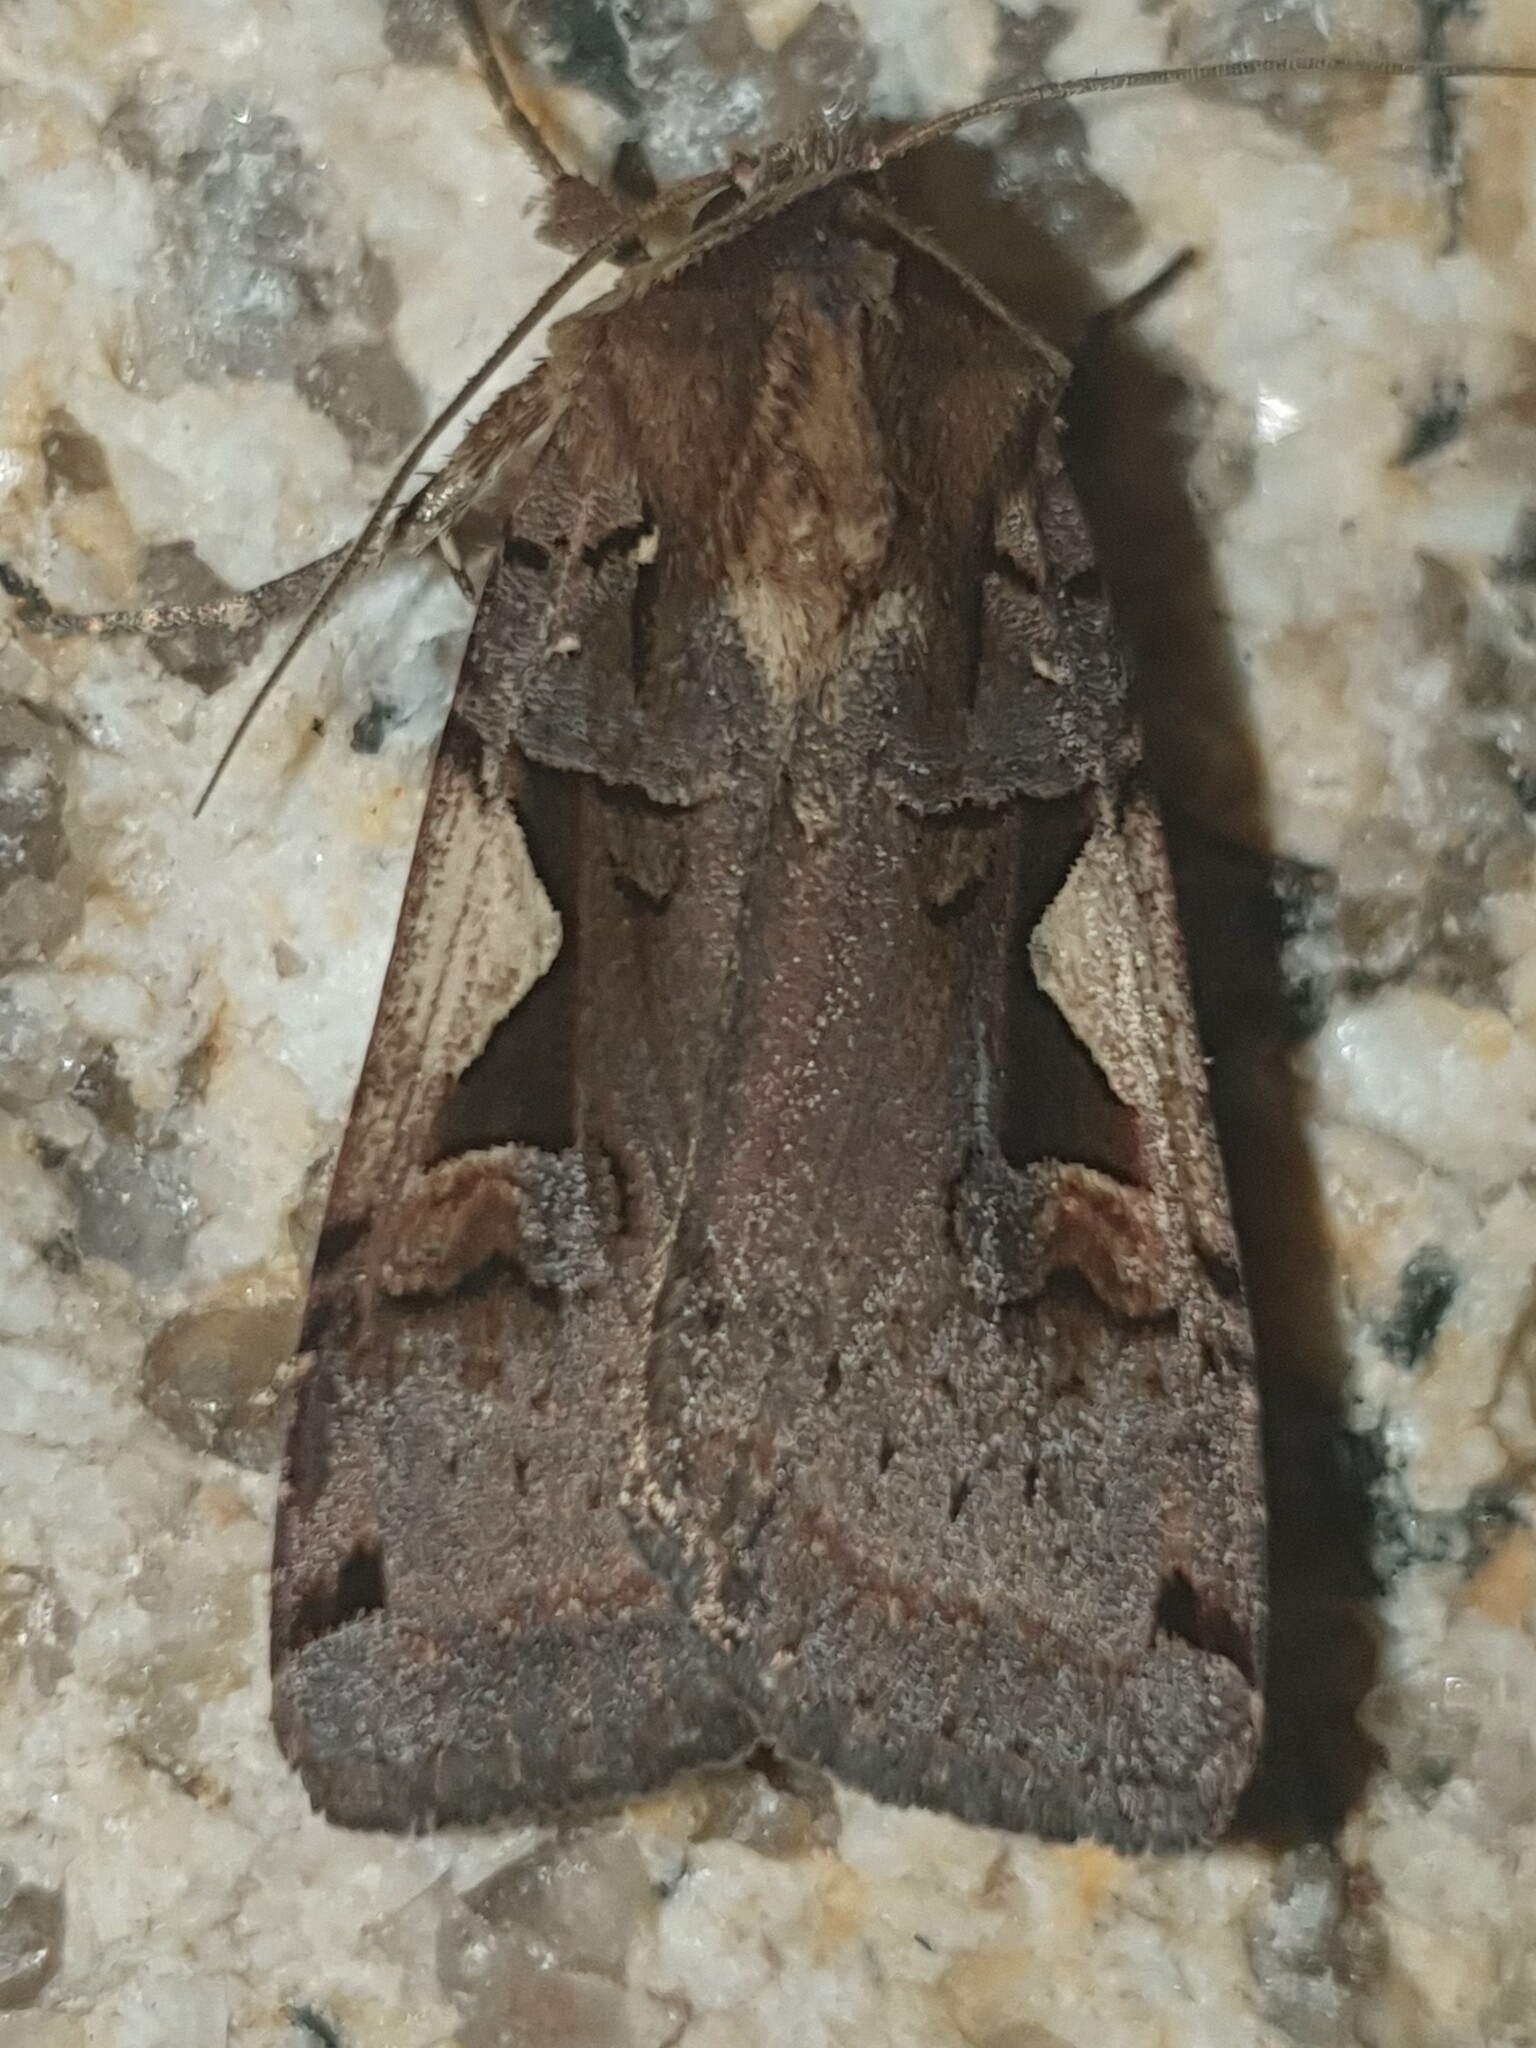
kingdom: Animalia
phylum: Arthropoda
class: Insecta
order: Lepidoptera
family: Noctuidae
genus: Xestia
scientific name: Xestia c-nigrum
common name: Setaceous hebrew character
